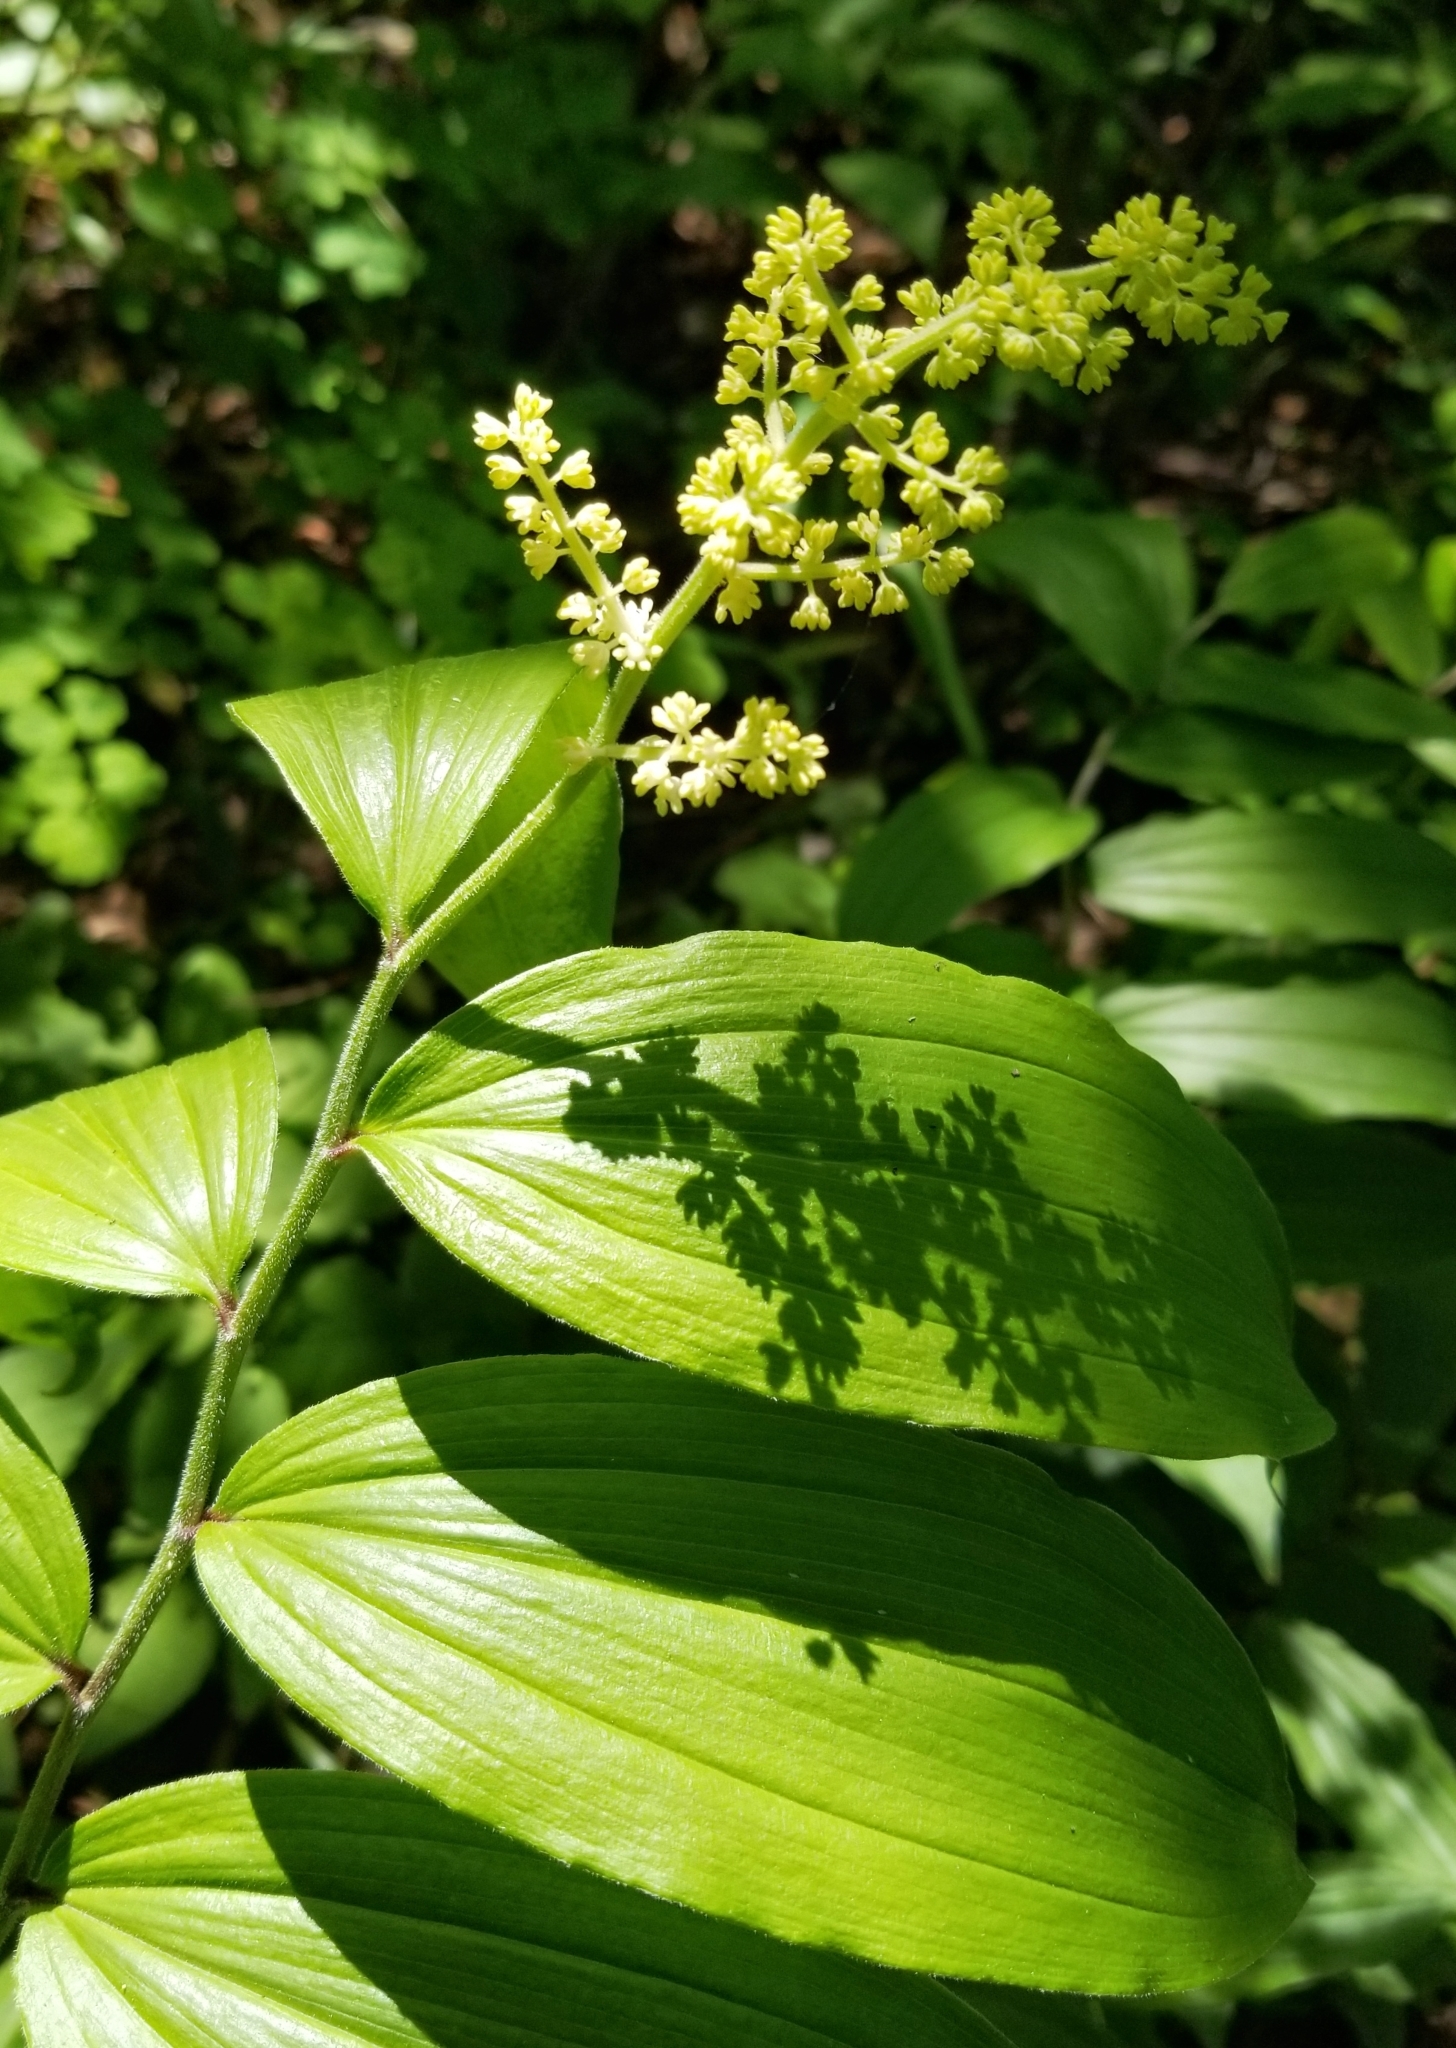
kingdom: Plantae
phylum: Tracheophyta
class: Liliopsida
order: Asparagales
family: Asparagaceae
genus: Maianthemum
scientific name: Maianthemum racemosum
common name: False spikenard
